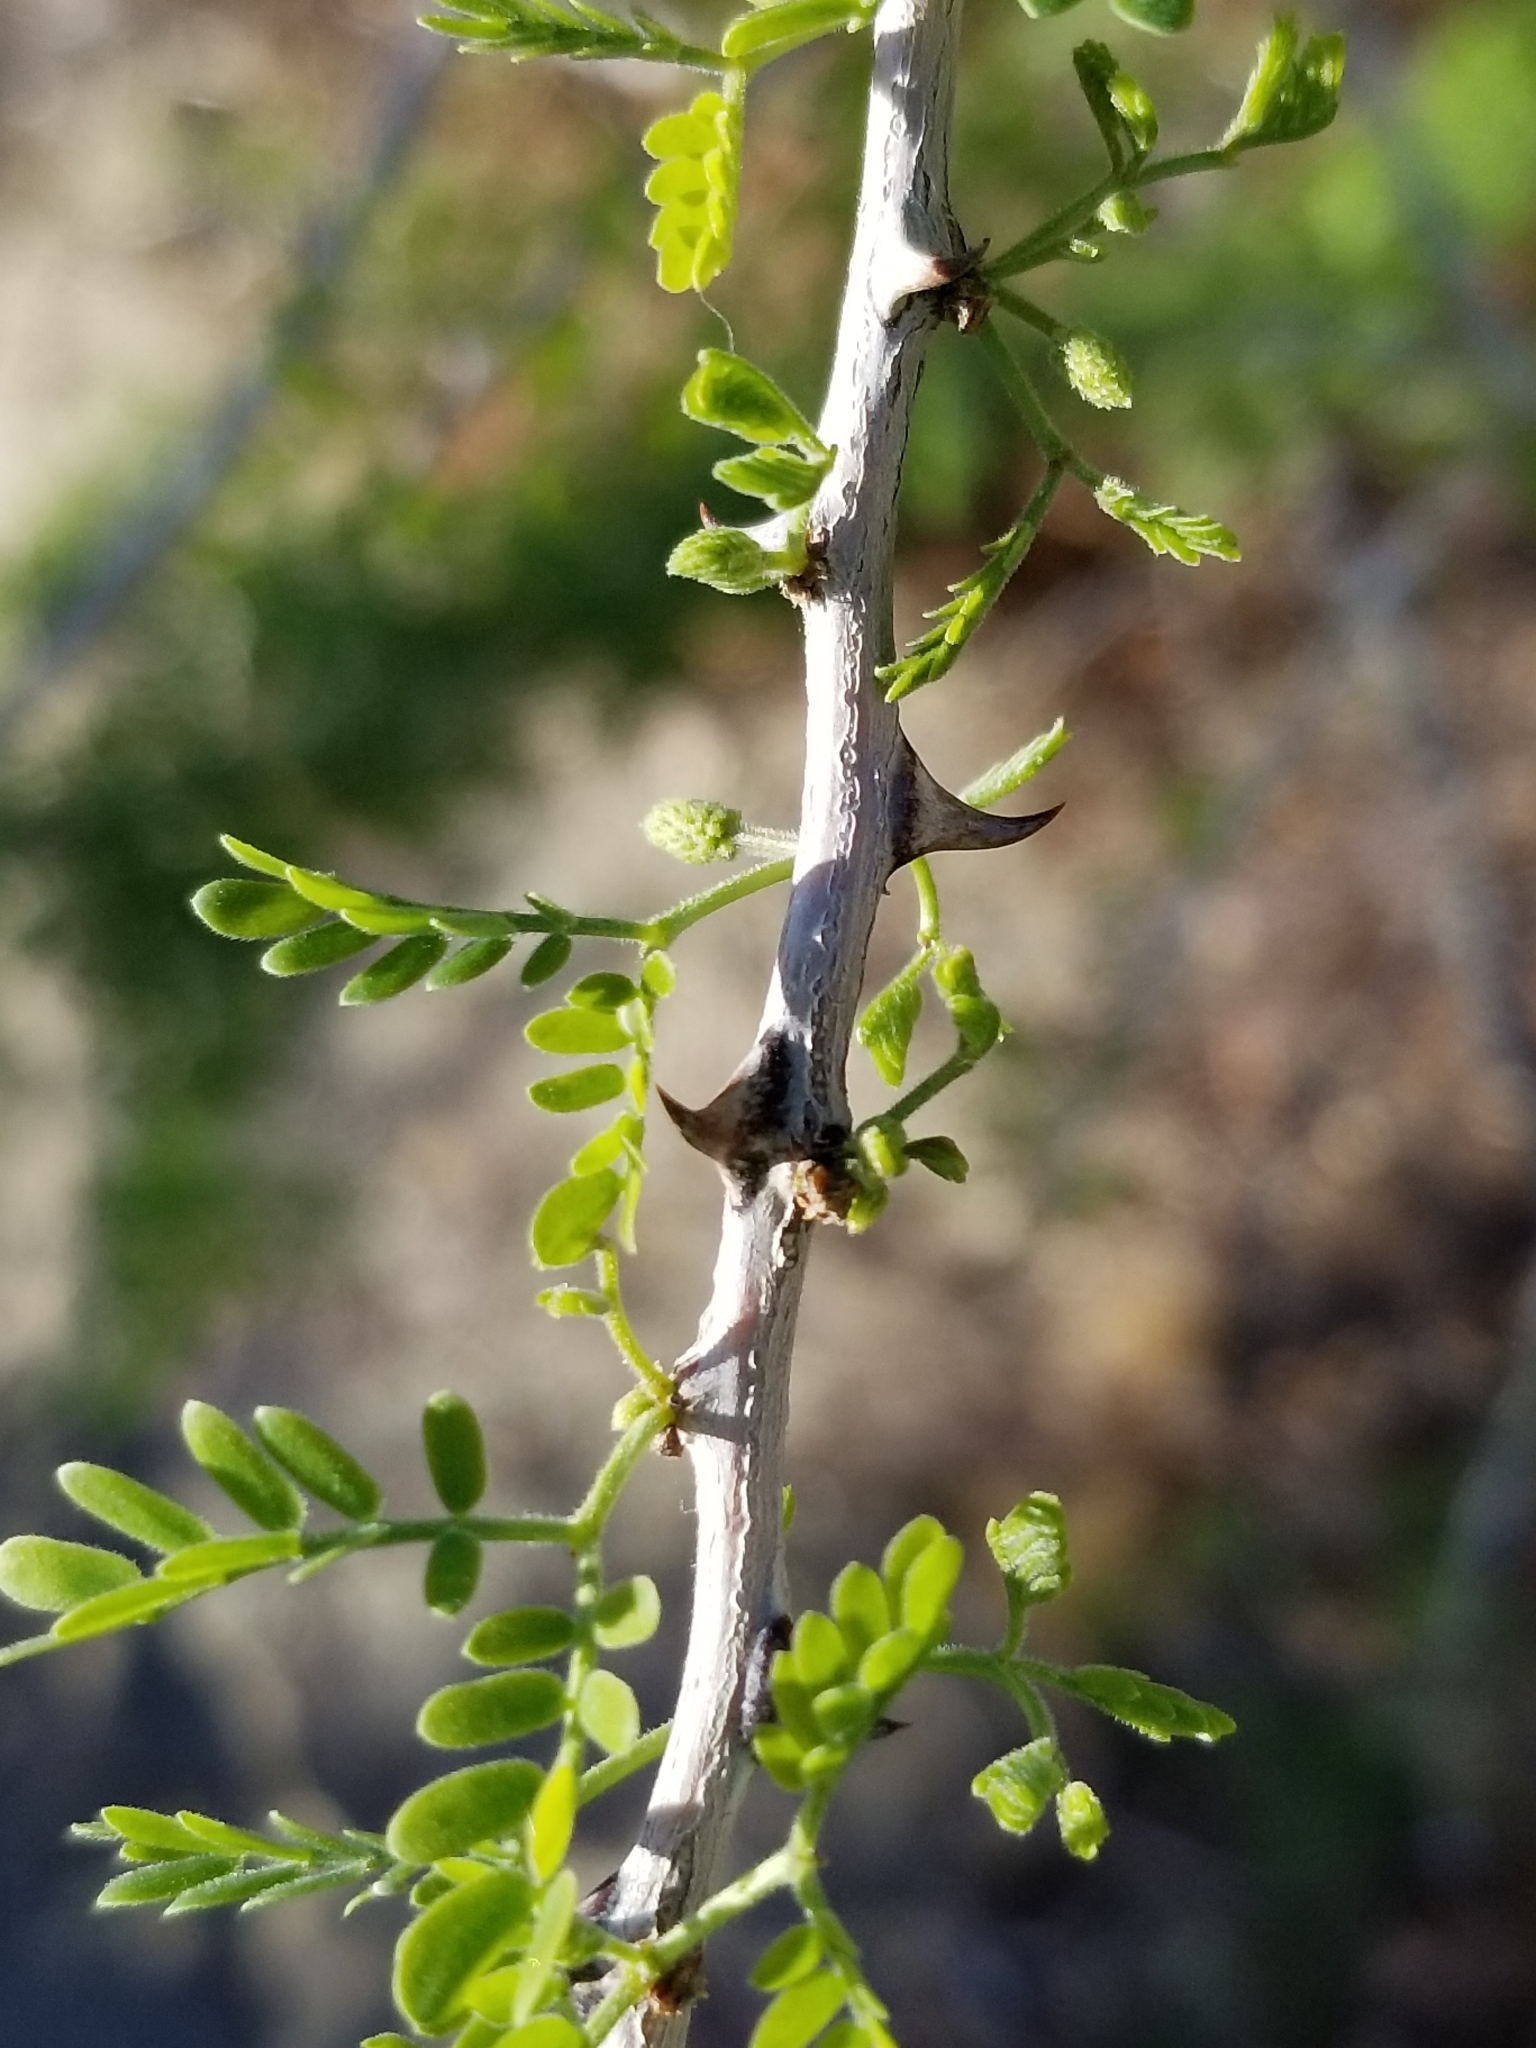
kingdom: Plantae
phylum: Tracheophyta
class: Magnoliopsida
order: Fabales
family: Fabaceae
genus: Senegalia
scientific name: Senegalia greggii
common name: Texas-mimosa
